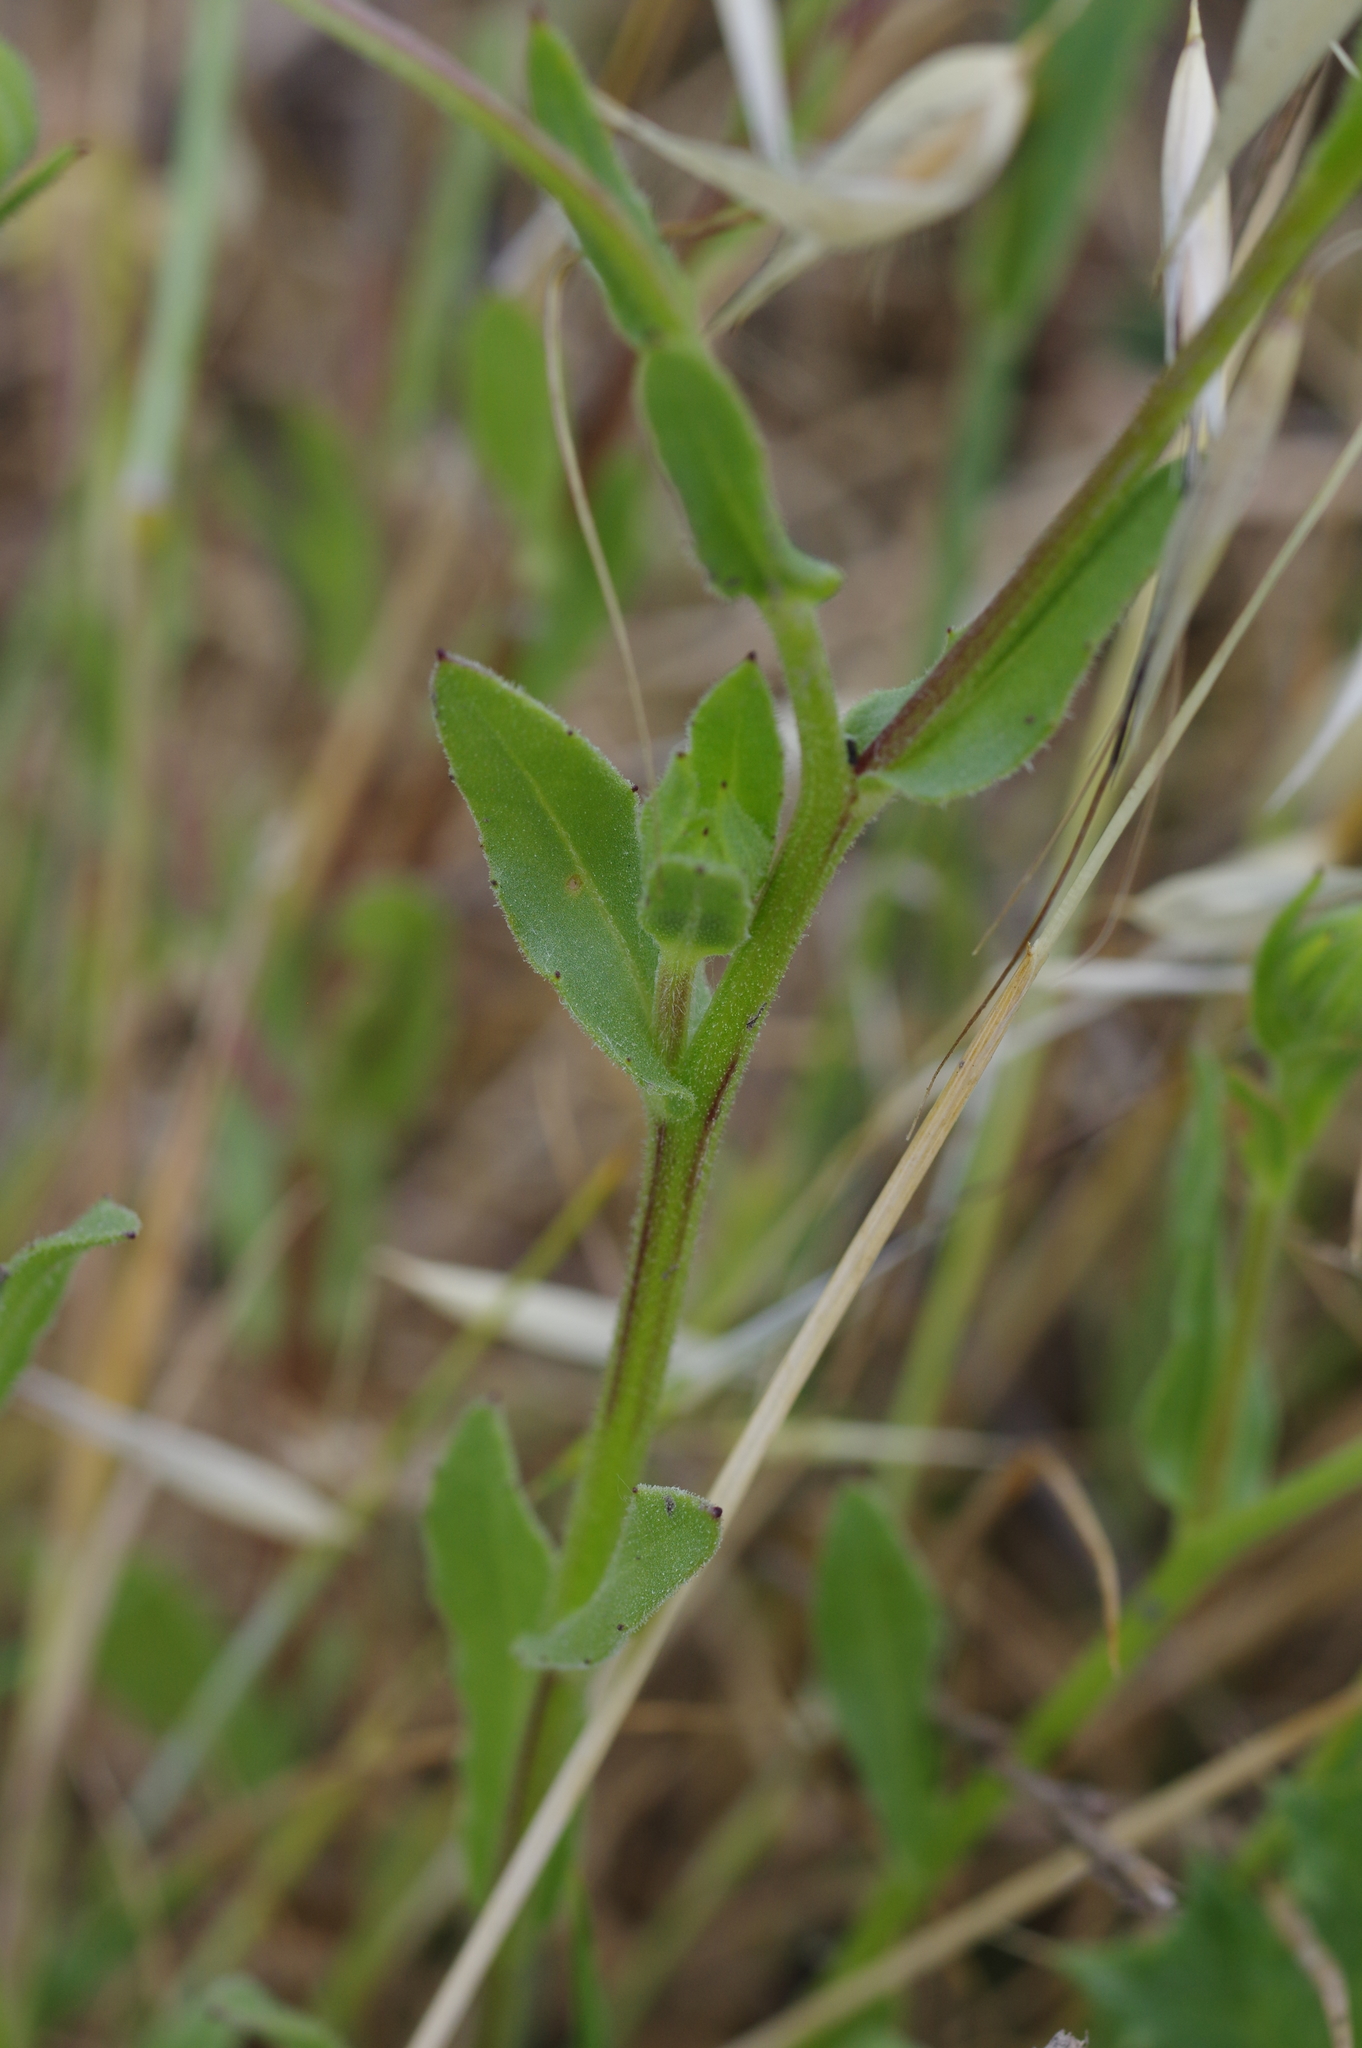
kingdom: Plantae
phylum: Tracheophyta
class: Magnoliopsida
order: Asterales
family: Asteraceae
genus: Calendula
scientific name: Calendula arvensis
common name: Field marigold
